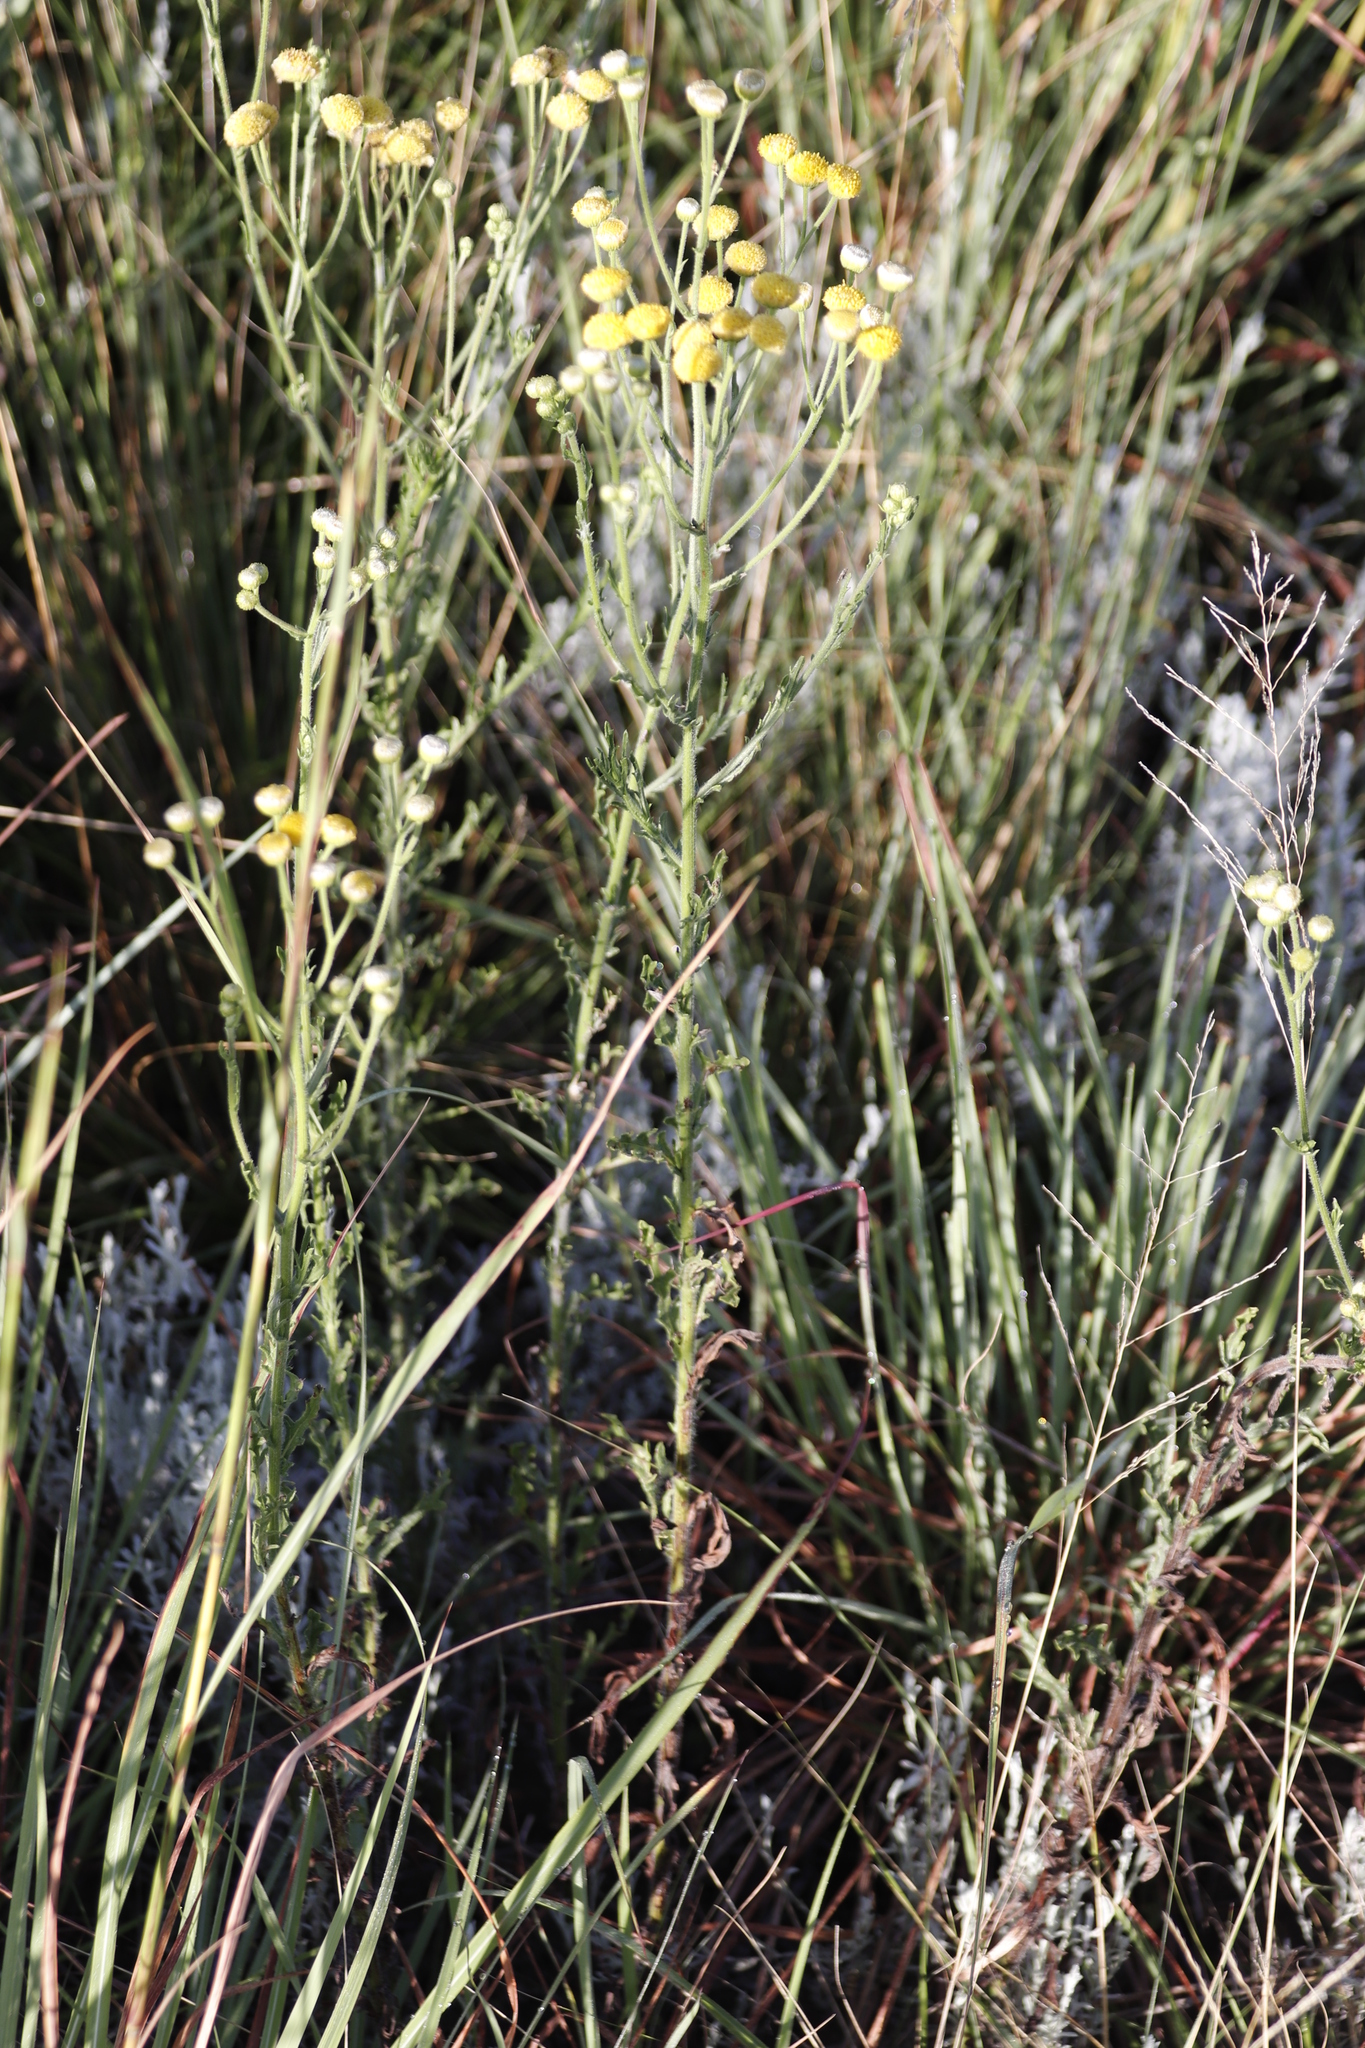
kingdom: Plantae
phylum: Tracheophyta
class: Magnoliopsida
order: Asterales
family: Asteraceae
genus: Nidorella
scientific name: Nidorella pinnata
